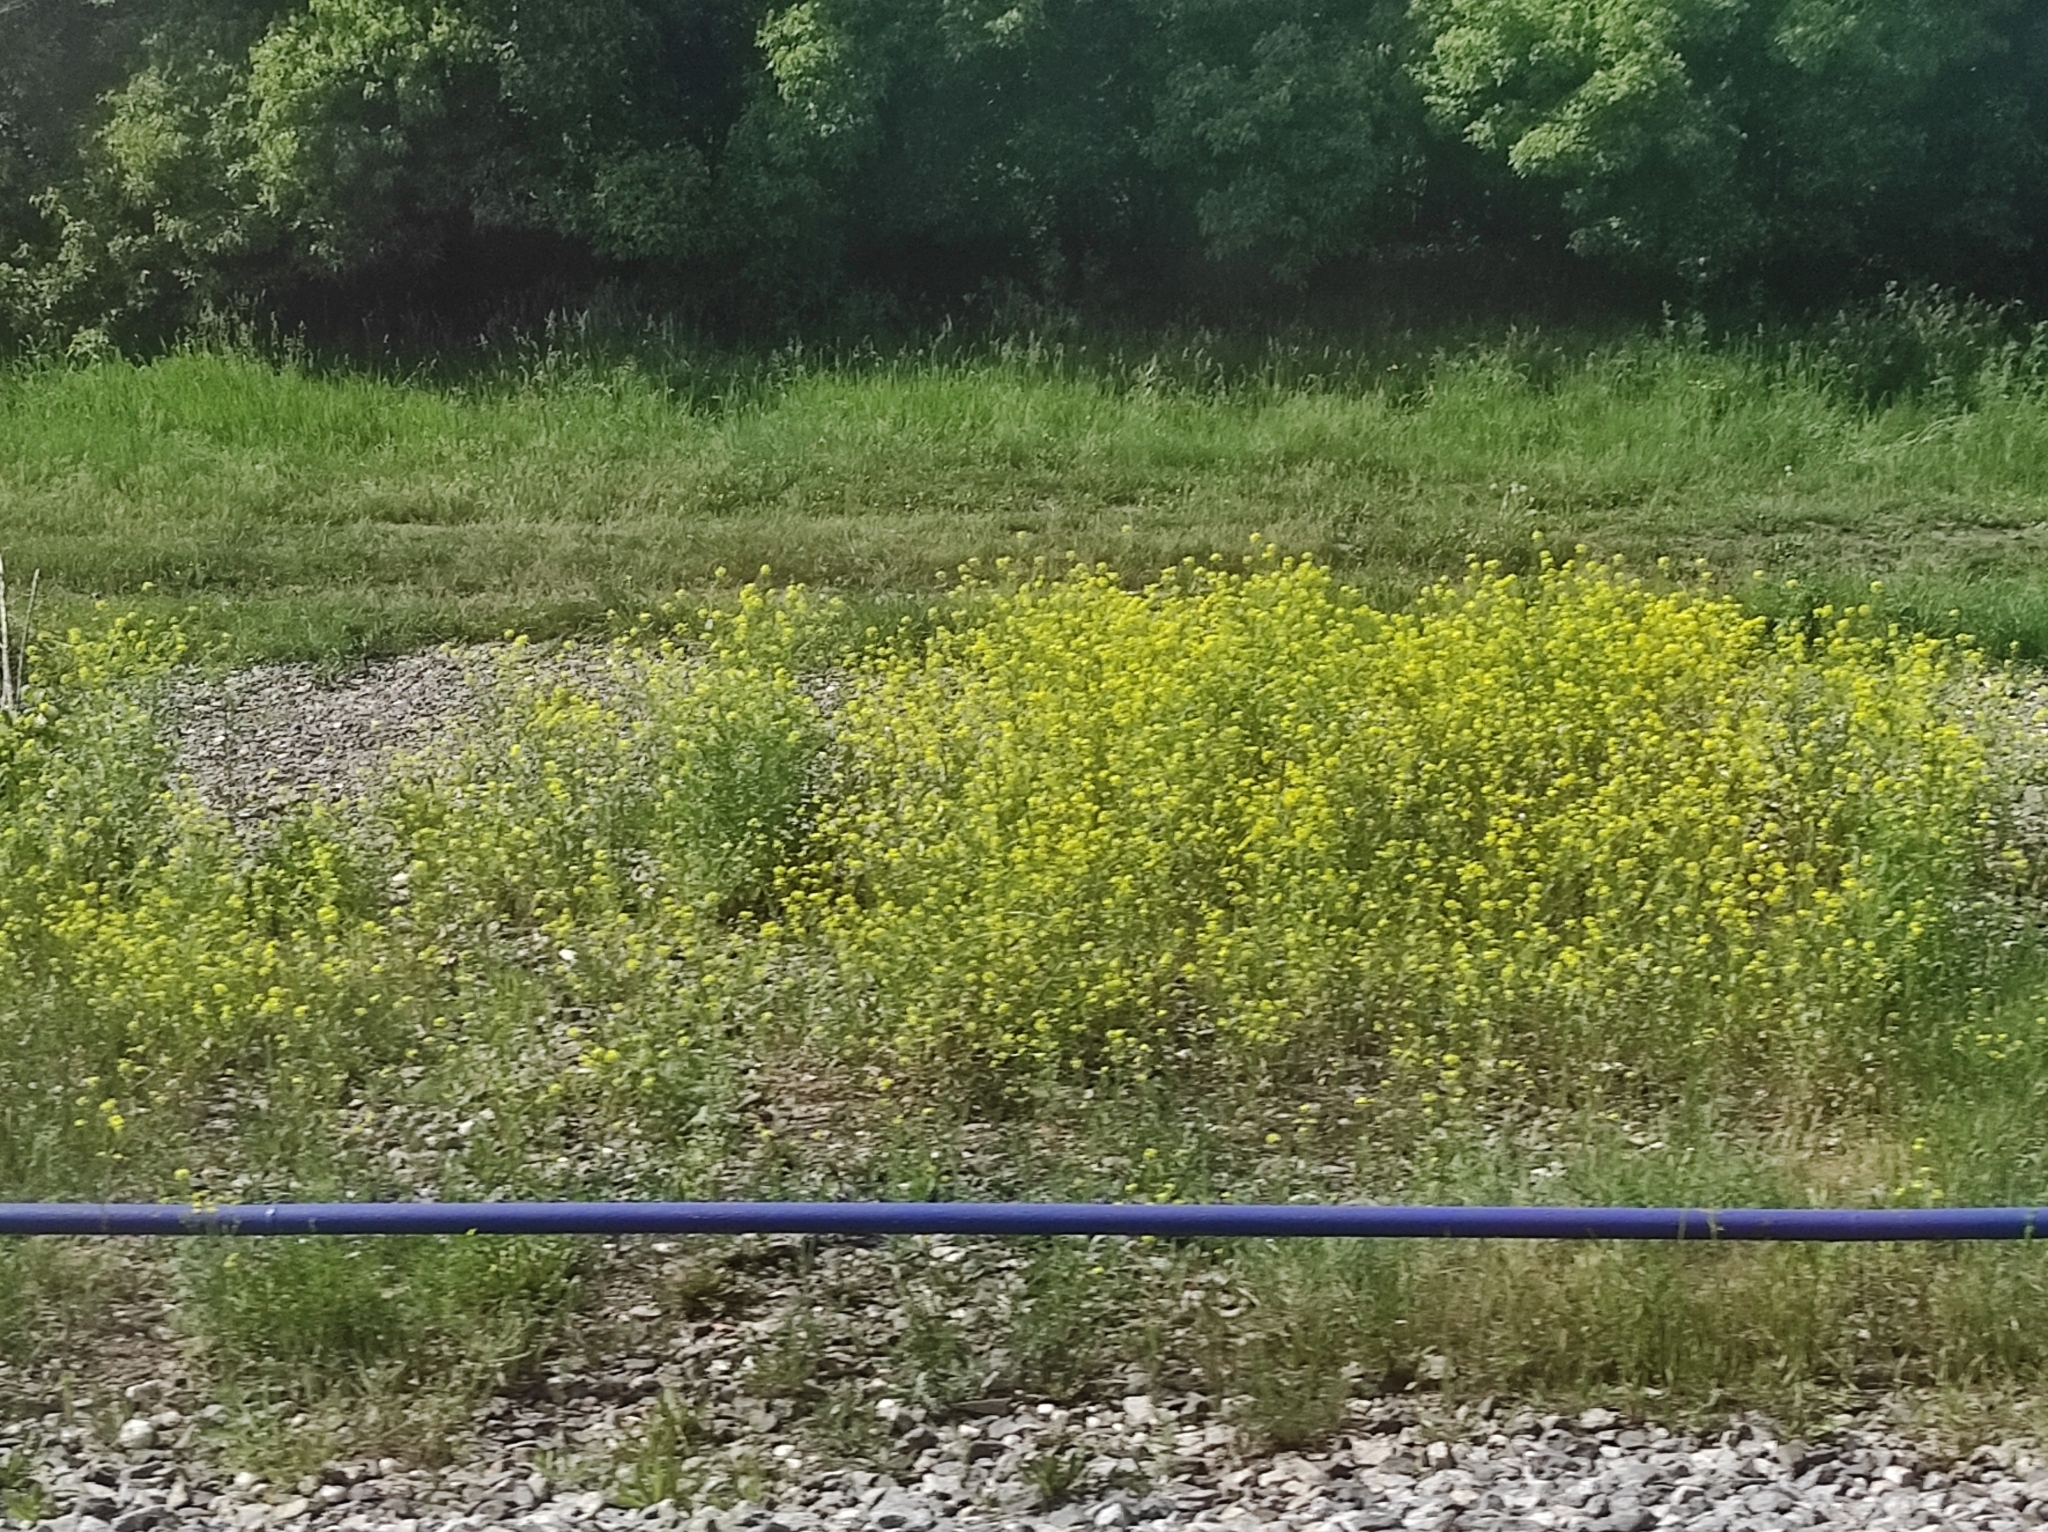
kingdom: Plantae
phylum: Tracheophyta
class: Magnoliopsida
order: Brassicales
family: Brassicaceae
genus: Sisymbrium
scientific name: Sisymbrium loeselii
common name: False london-rocket
